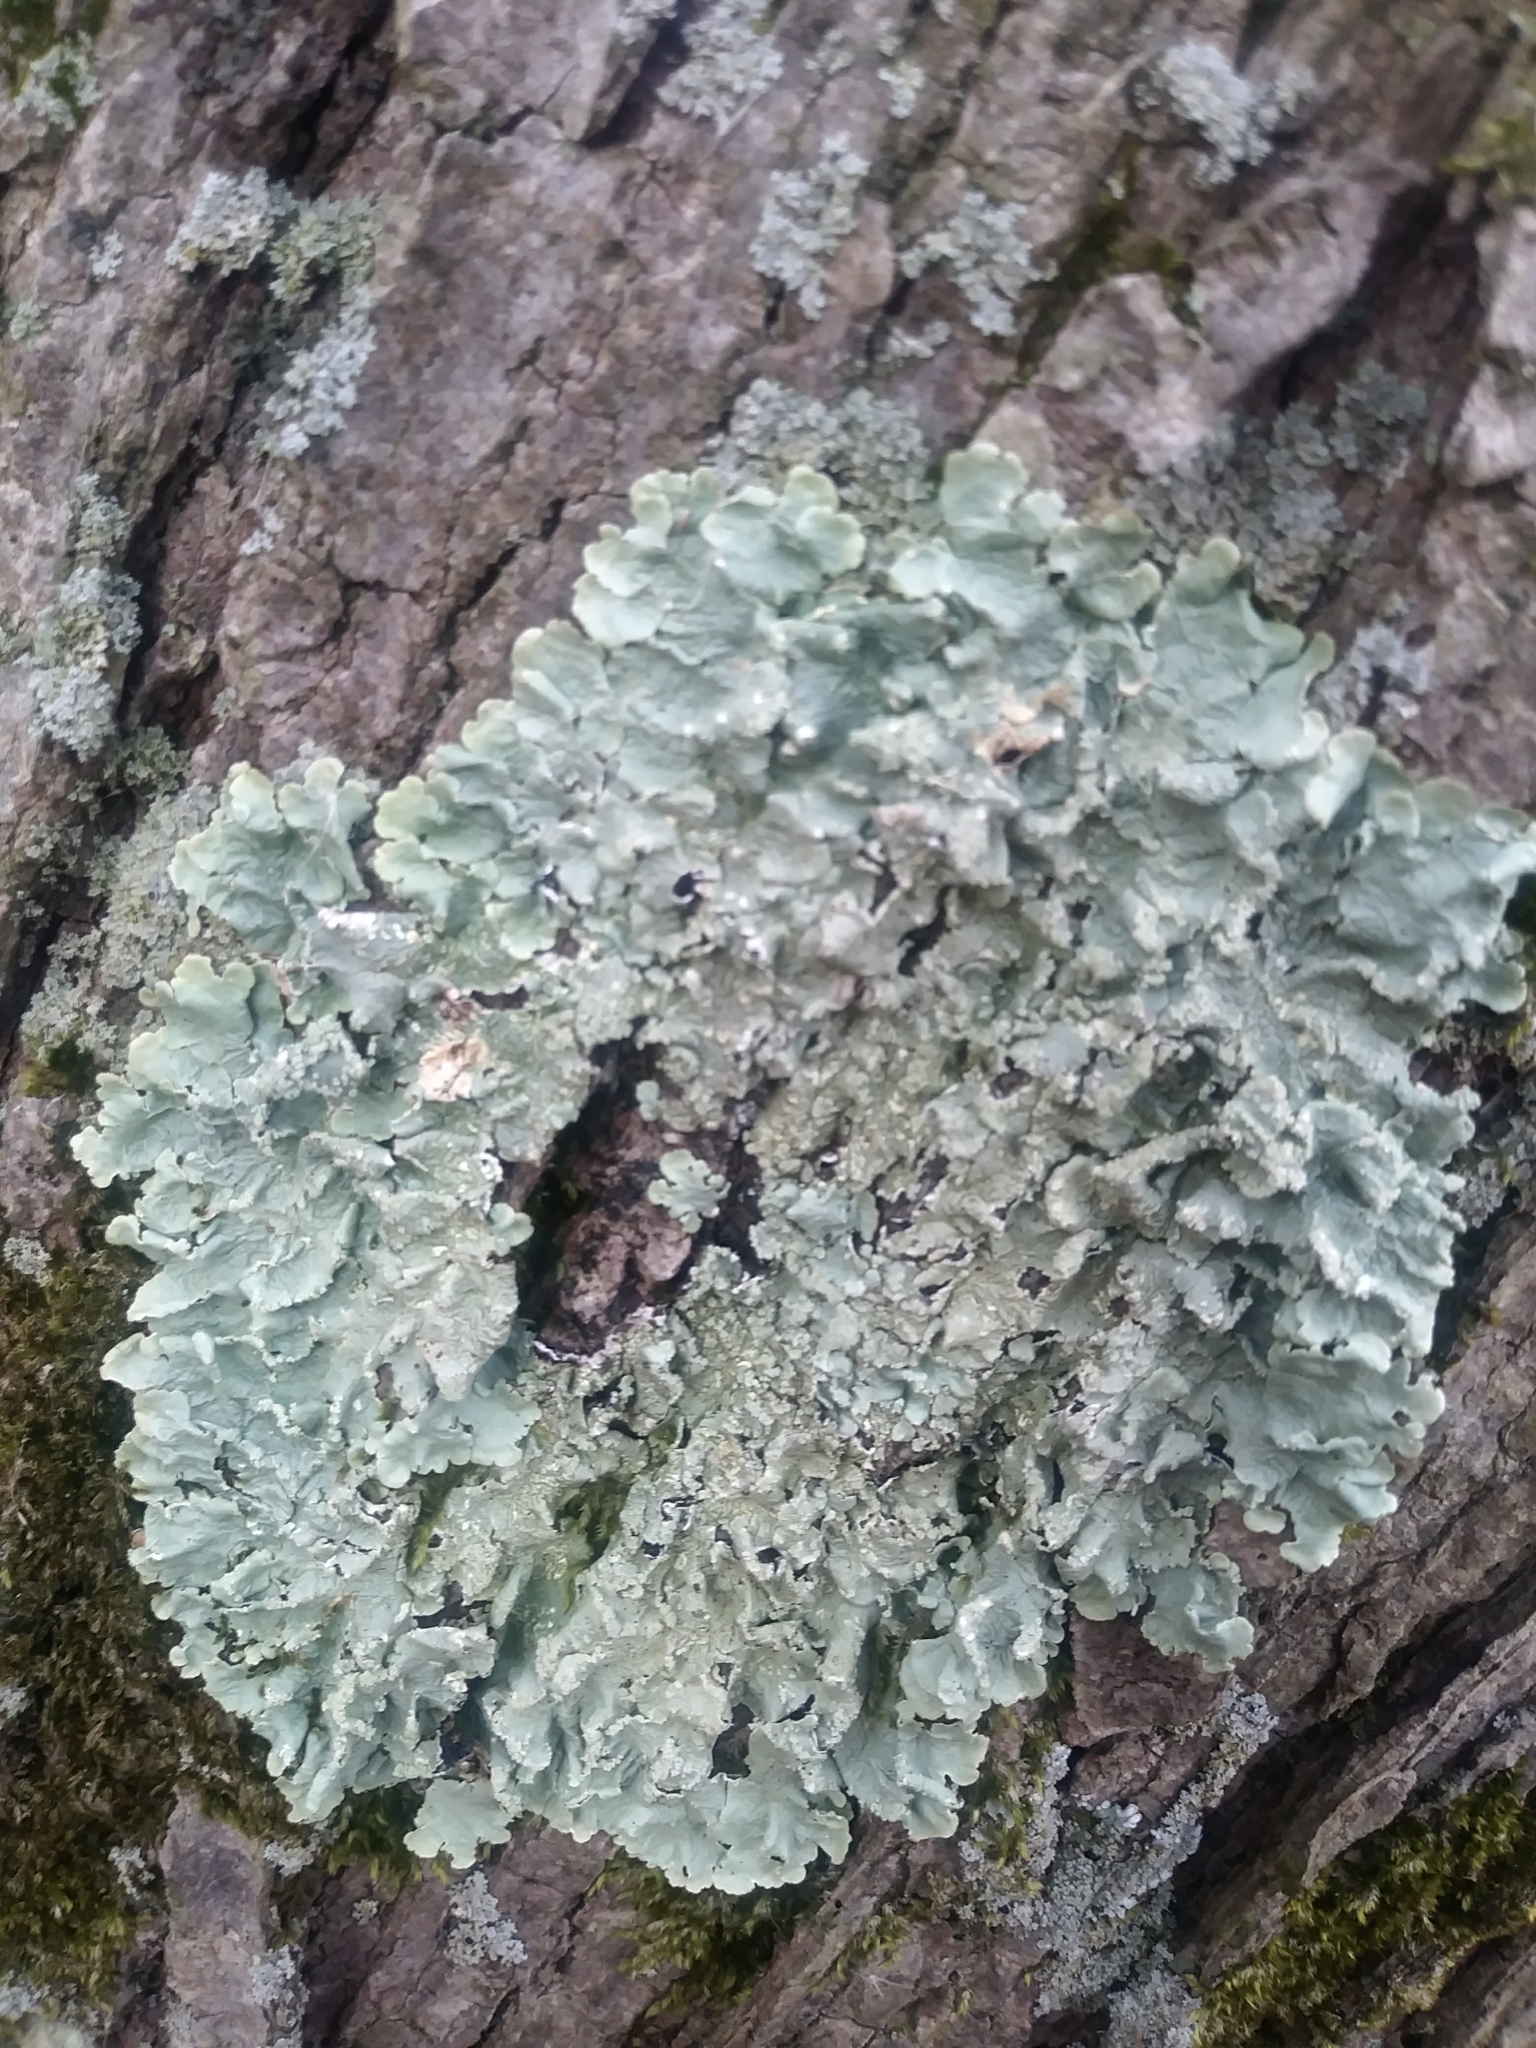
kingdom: Fungi
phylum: Ascomycota
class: Lecanoromycetes
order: Lecanorales
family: Parmeliaceae
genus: Flavoparmelia
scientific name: Flavoparmelia caperata
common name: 40-mile per hour lichen
